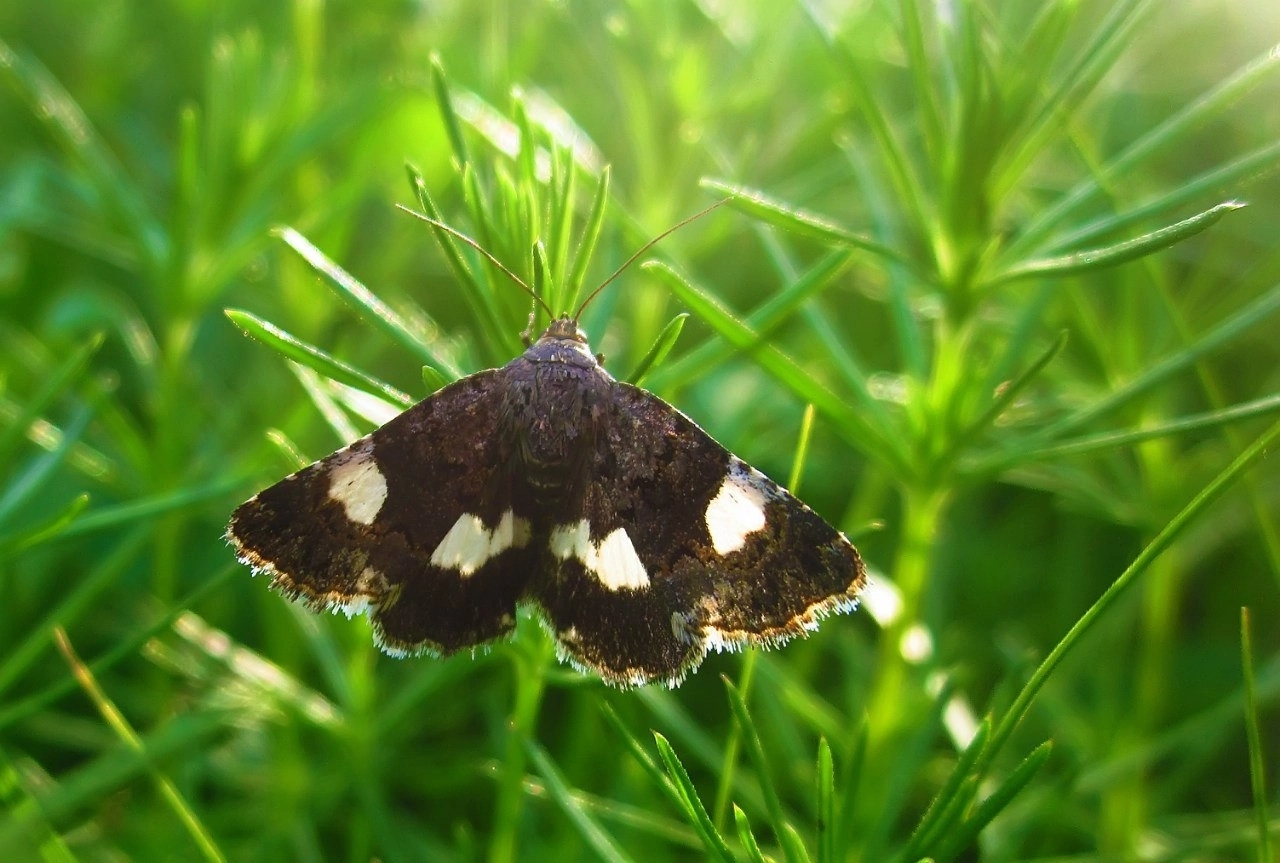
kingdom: Animalia
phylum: Arthropoda
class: Insecta
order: Lepidoptera
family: Erebidae
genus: Tyta
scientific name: Tyta luctuosa
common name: Four-spotted
